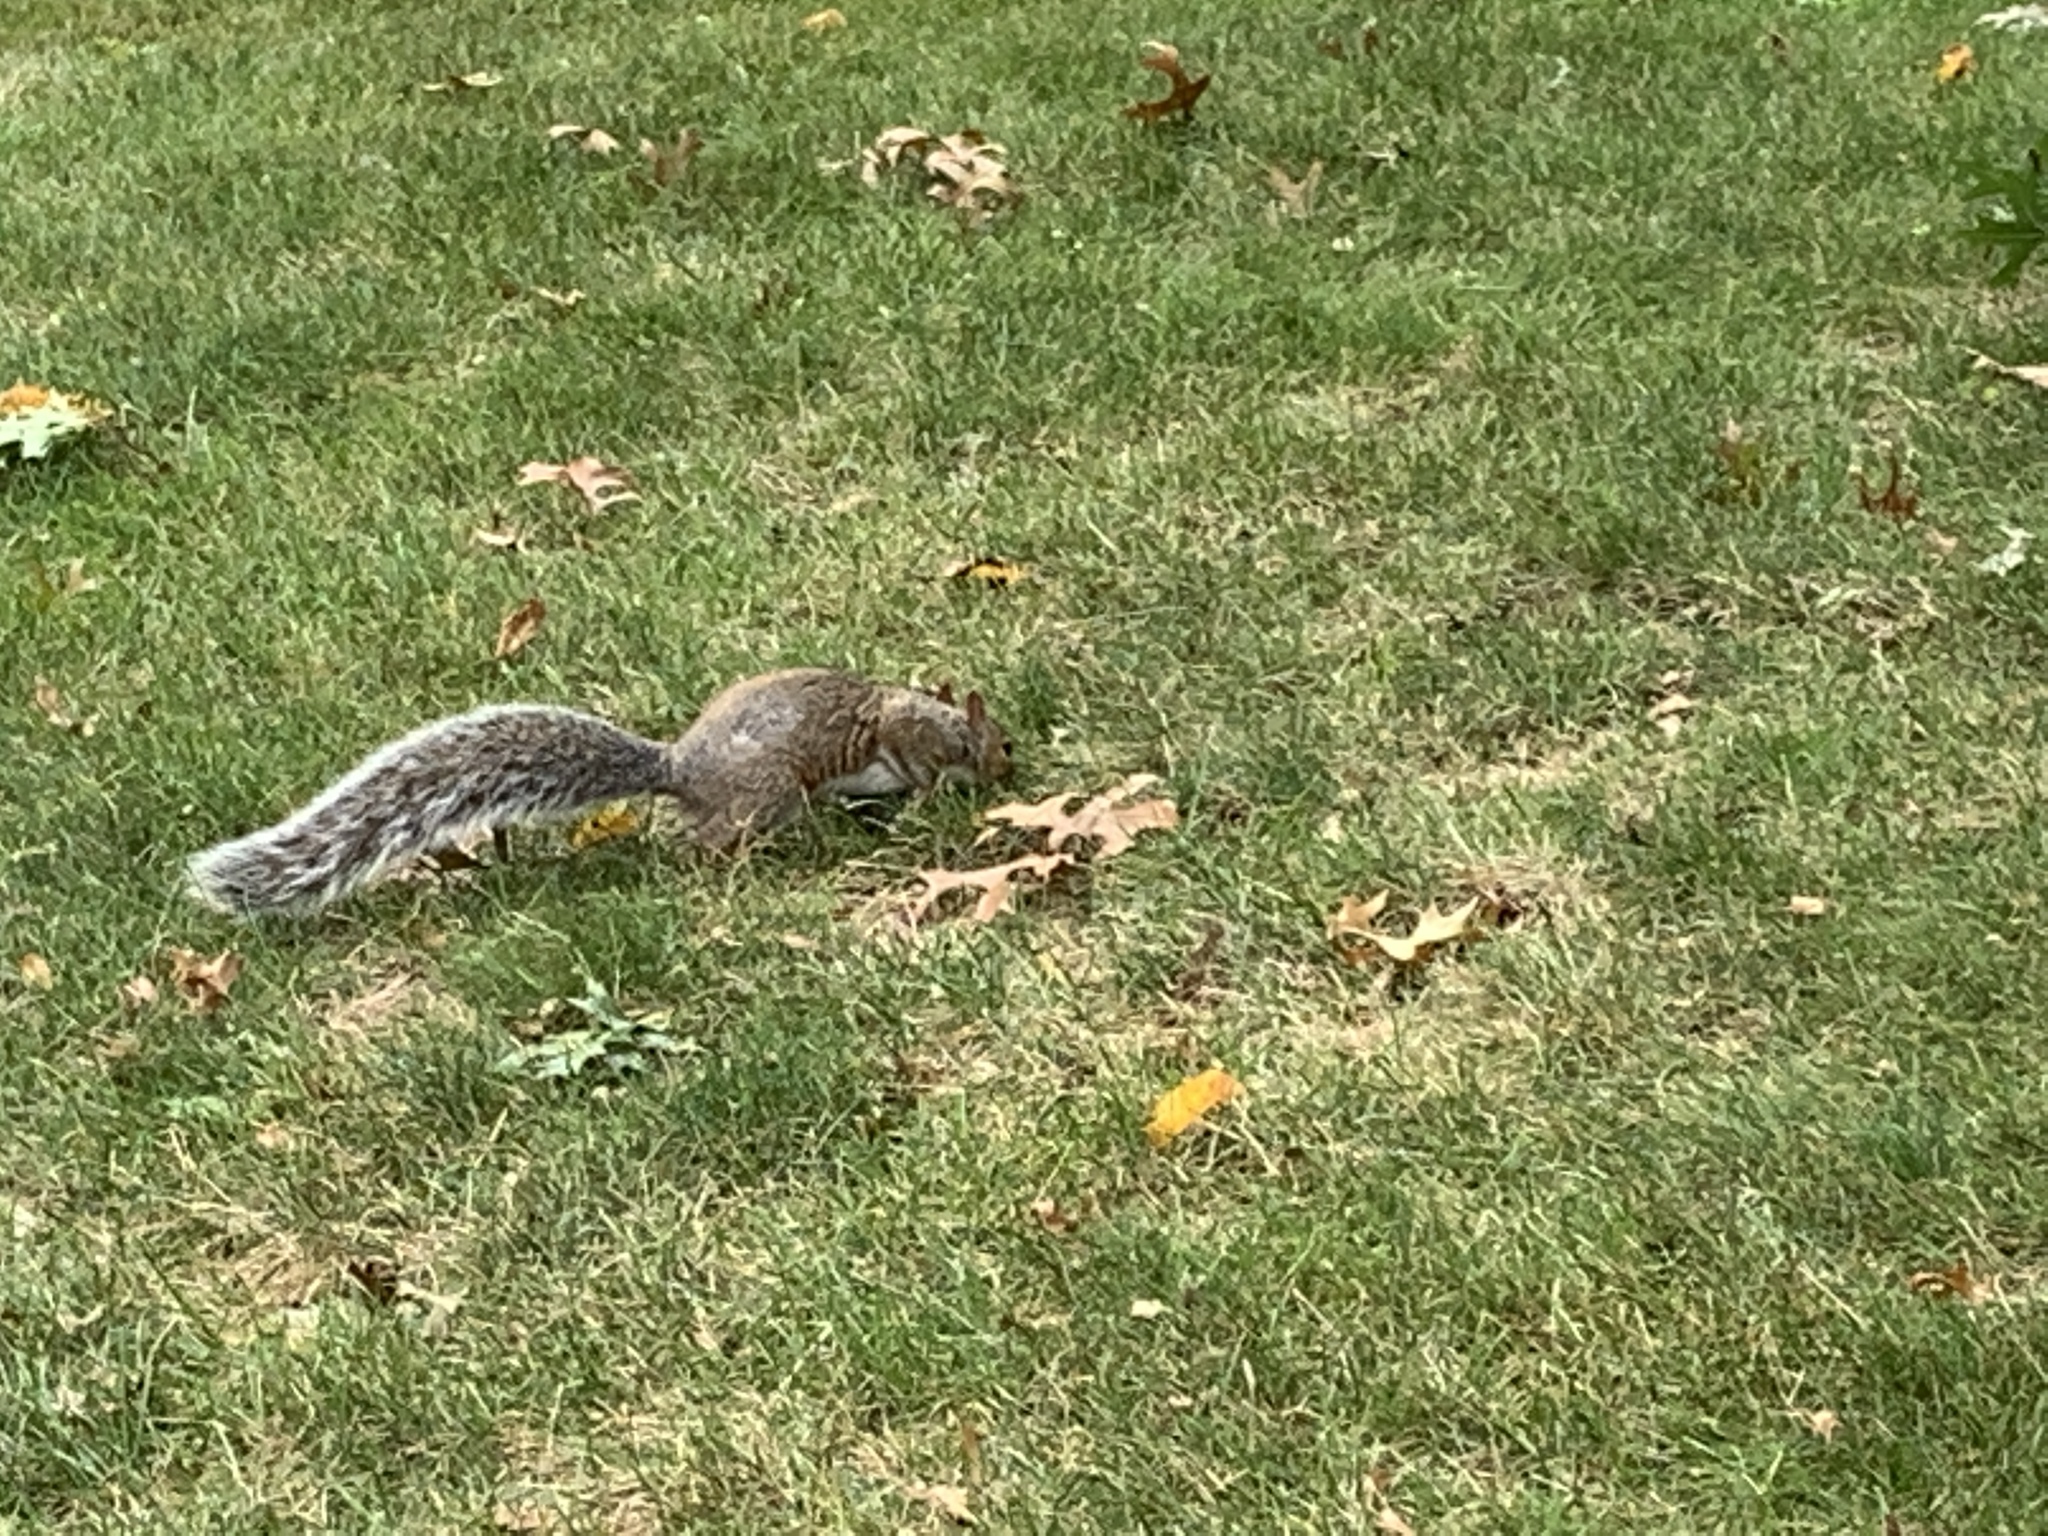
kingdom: Animalia
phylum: Chordata
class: Mammalia
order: Rodentia
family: Sciuridae
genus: Sciurus
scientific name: Sciurus carolinensis
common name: Eastern gray squirrel
